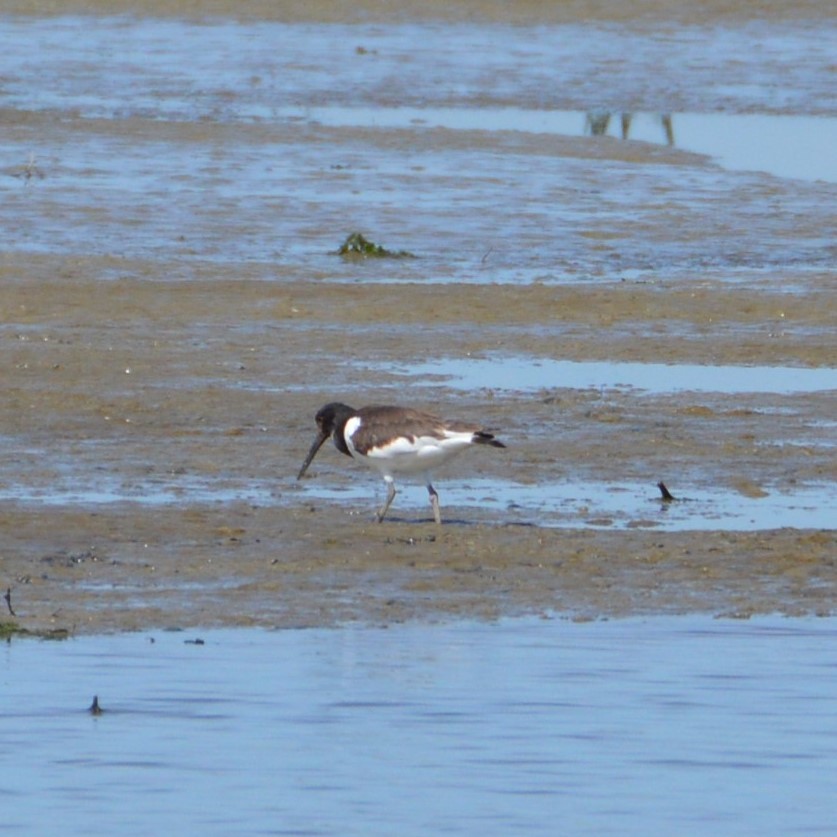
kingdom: Animalia
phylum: Chordata
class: Aves
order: Charadriiformes
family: Haematopodidae
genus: Haematopus
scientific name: Haematopus ostralegus
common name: Eurasian oystercatcher
